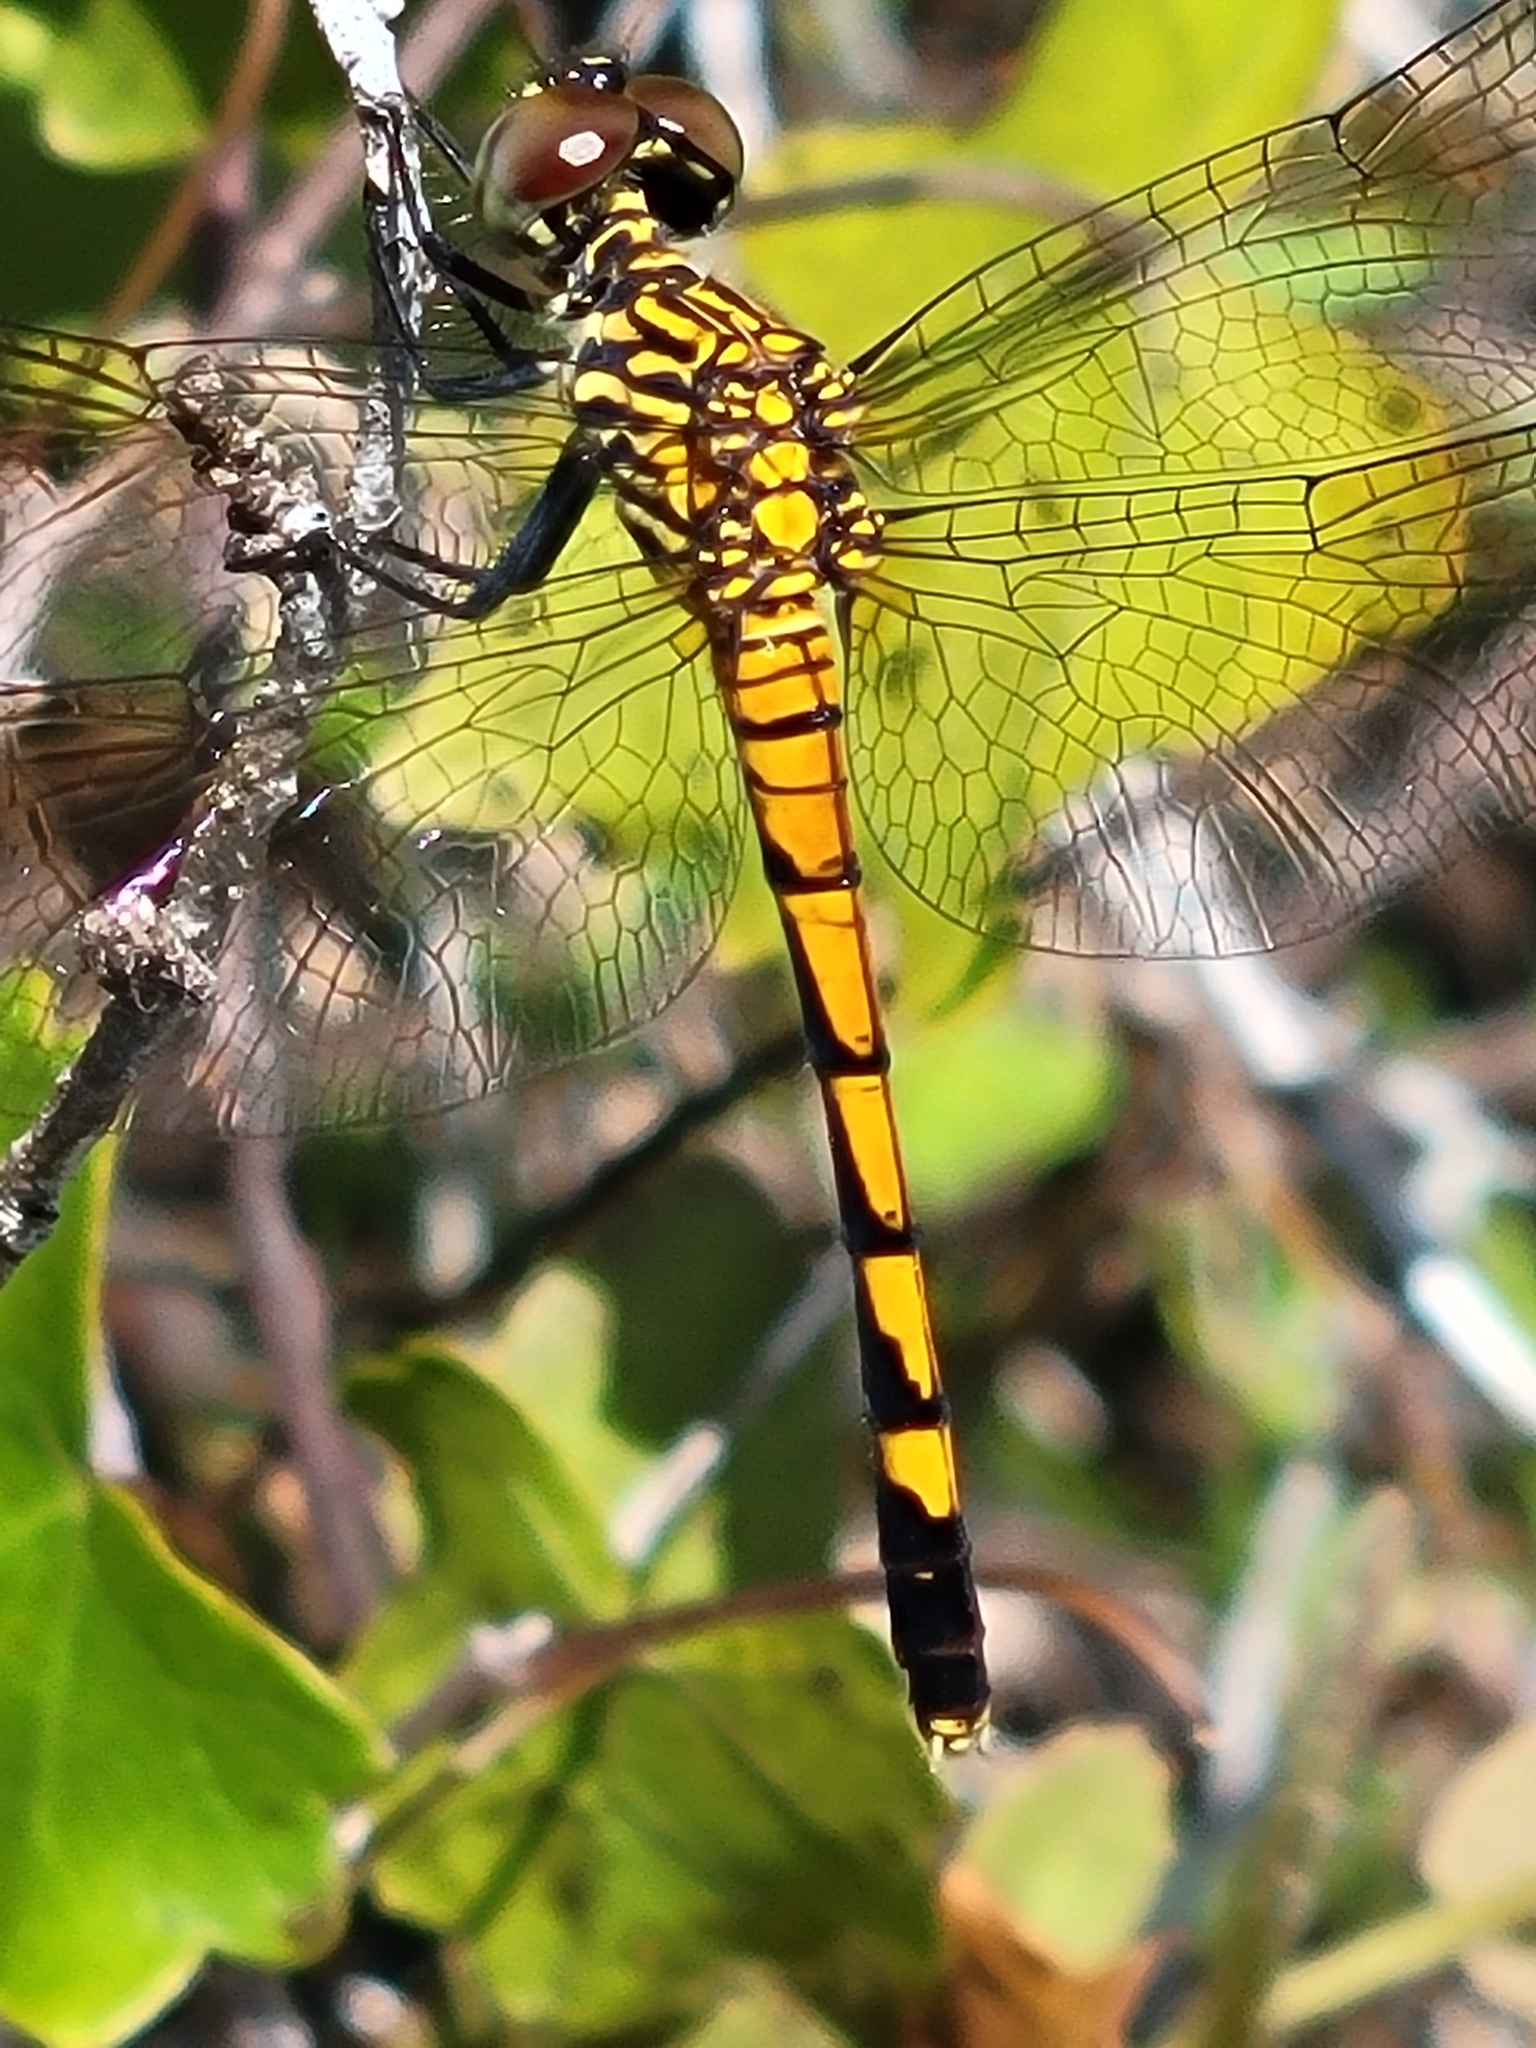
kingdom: Animalia
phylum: Arthropoda
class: Insecta
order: Odonata
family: Libellulidae
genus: Erythrodiplax
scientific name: Erythrodiplax berenice
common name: Seaside dragonlet
